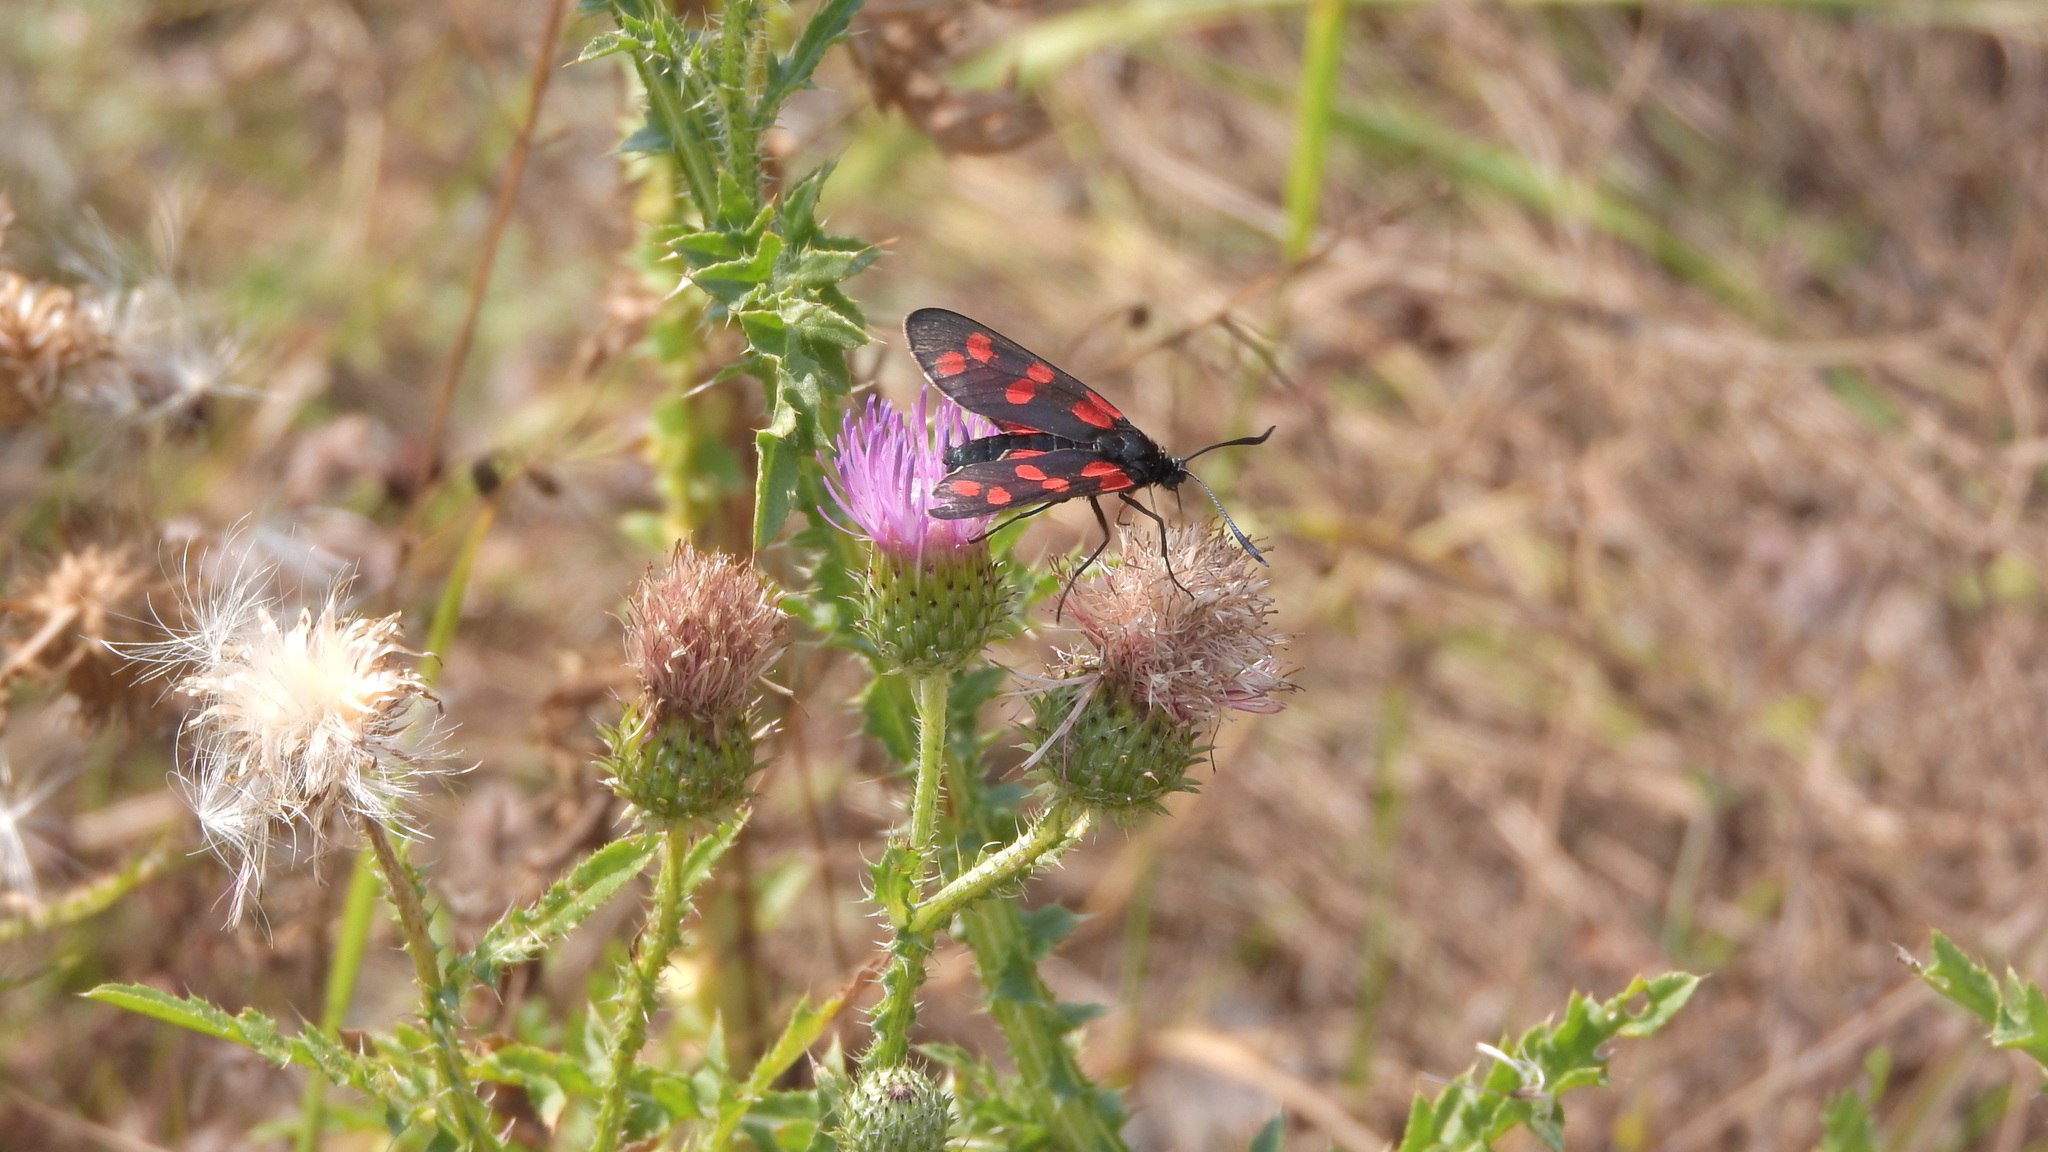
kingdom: Animalia
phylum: Arthropoda
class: Insecta
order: Lepidoptera
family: Zygaenidae
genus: Zygaena
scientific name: Zygaena filipendulae
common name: Six-spot burnet
